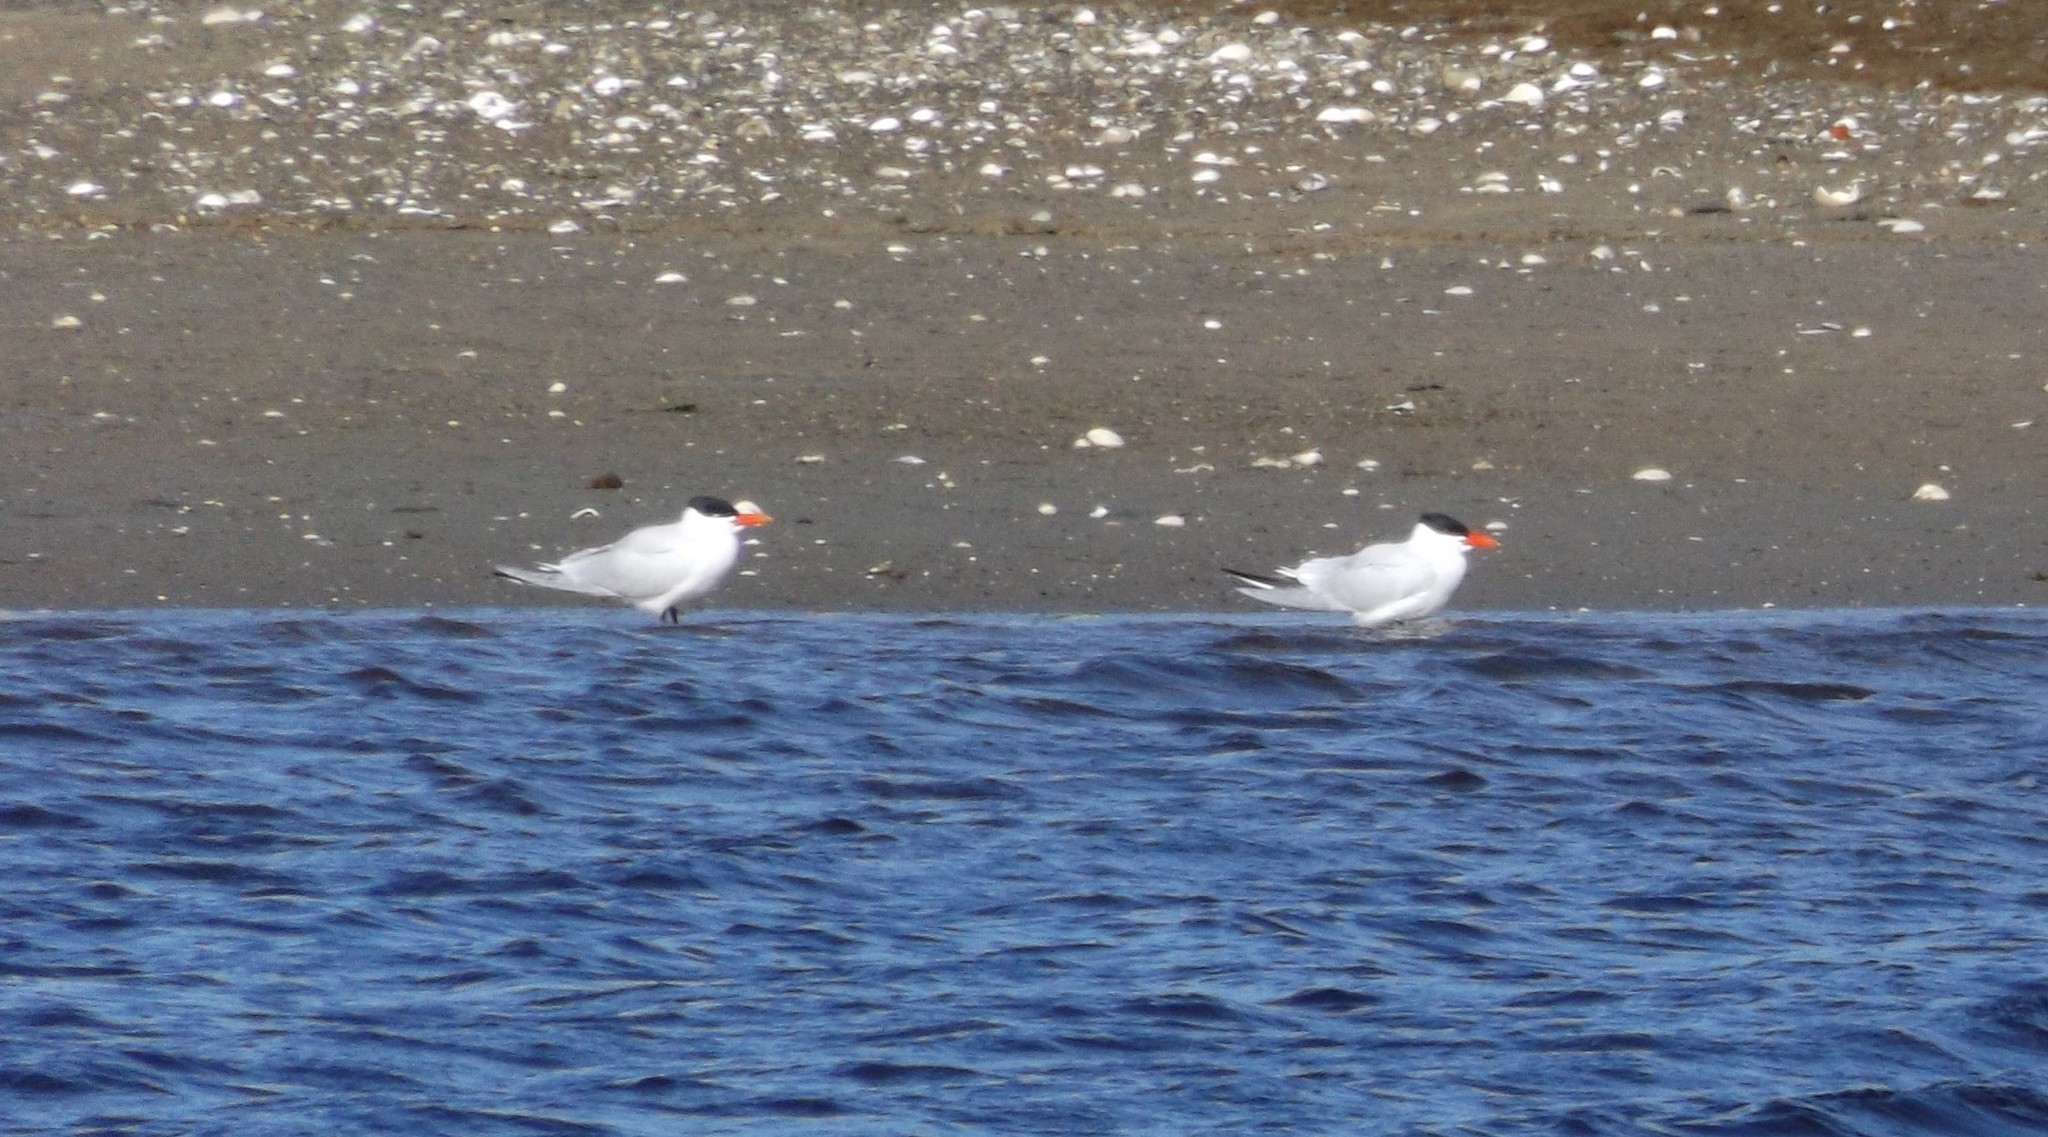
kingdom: Animalia
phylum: Chordata
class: Aves
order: Charadriiformes
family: Laridae
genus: Hydroprogne
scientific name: Hydroprogne caspia
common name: Caspian tern
